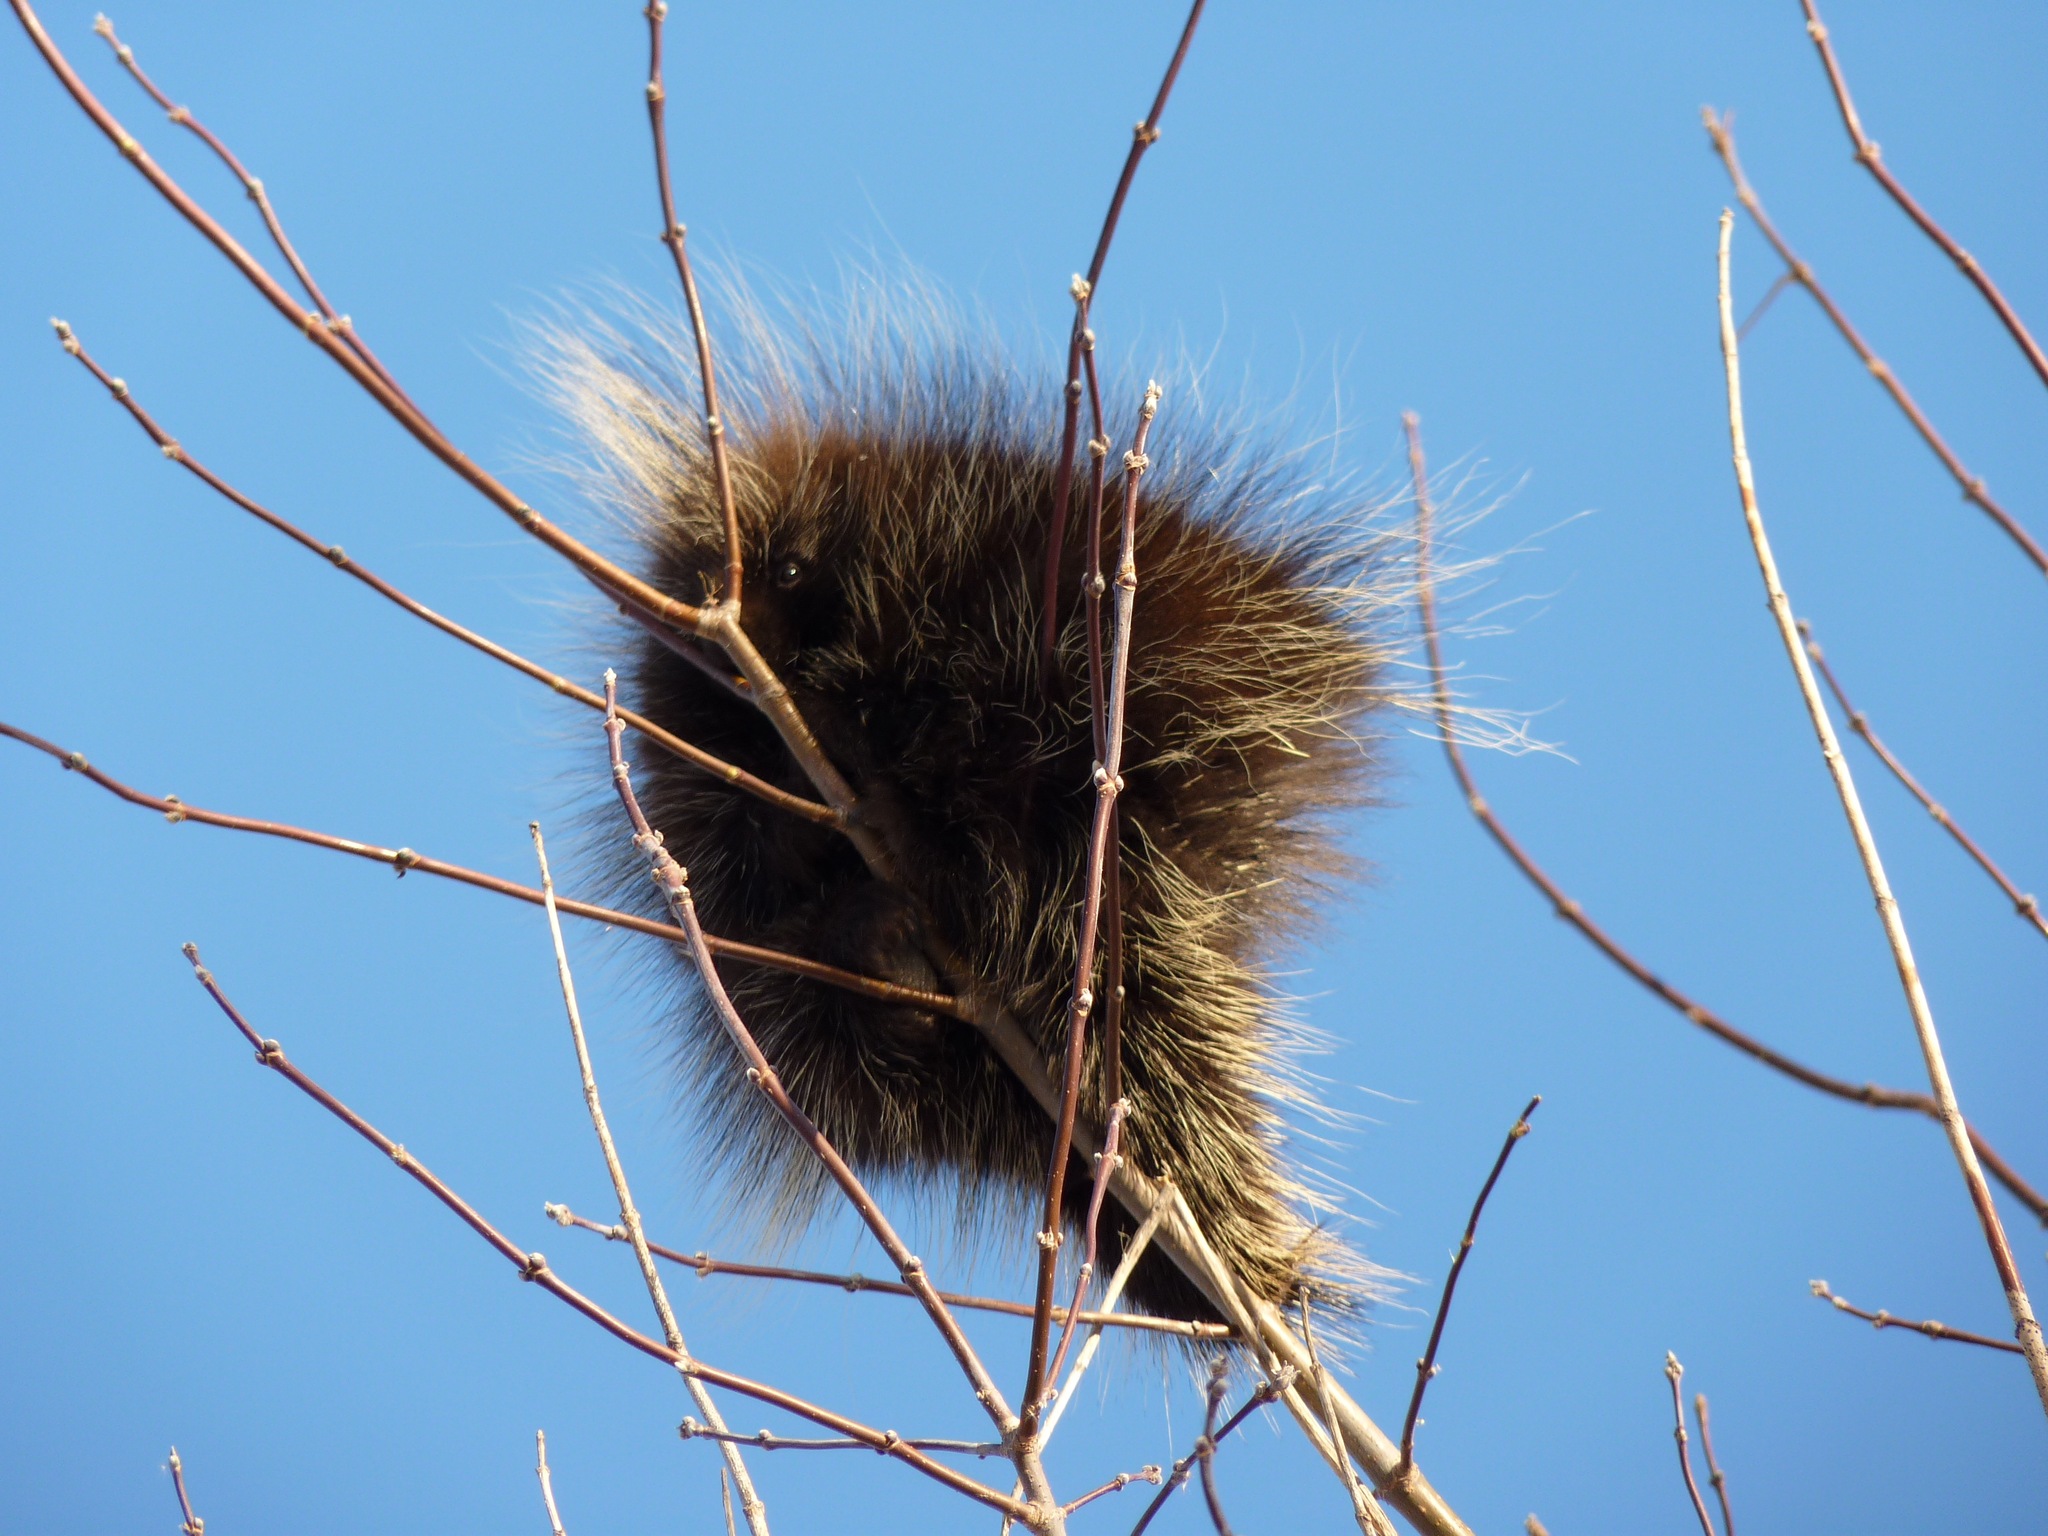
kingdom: Animalia
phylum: Chordata
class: Mammalia
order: Rodentia
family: Erethizontidae
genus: Erethizon
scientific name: Erethizon dorsatus
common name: North american porcupine
